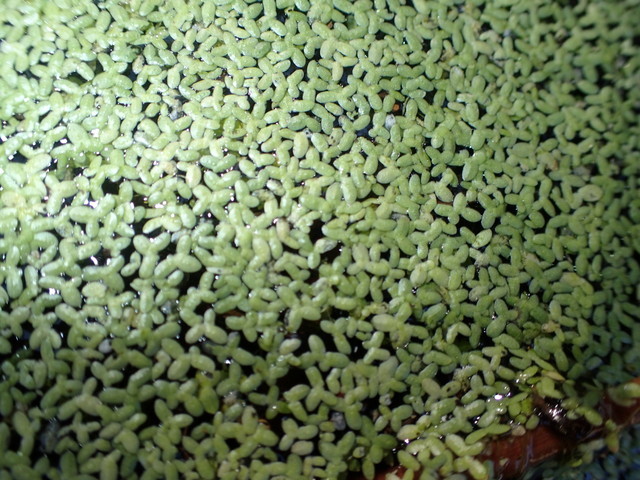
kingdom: Plantae
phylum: Tracheophyta
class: Liliopsida
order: Alismatales
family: Araceae
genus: Lemna
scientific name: Lemna minor
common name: Common duckweed
